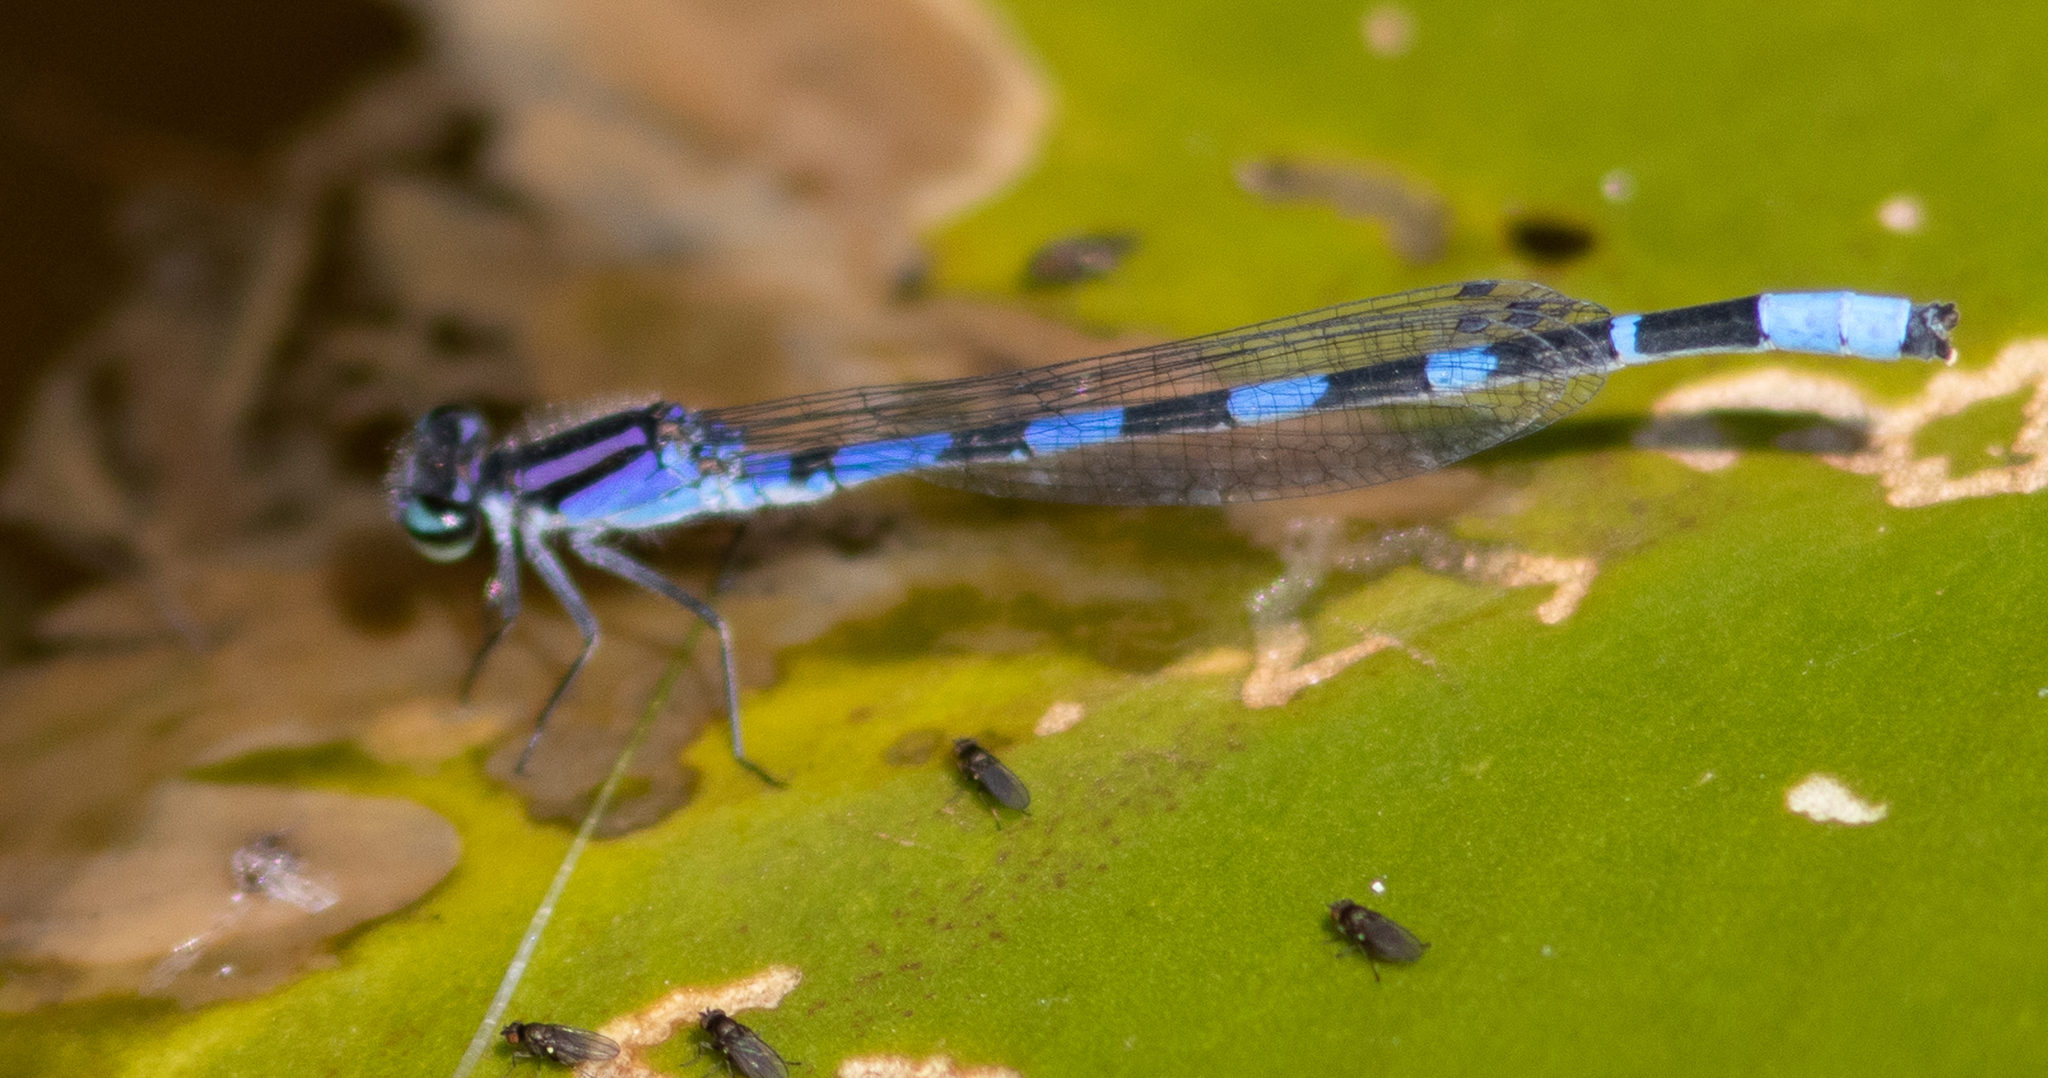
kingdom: Animalia
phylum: Arthropoda
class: Insecta
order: Odonata
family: Coenagrionidae
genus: Enallagma
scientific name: Enallagma minusculum
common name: Little bluet
